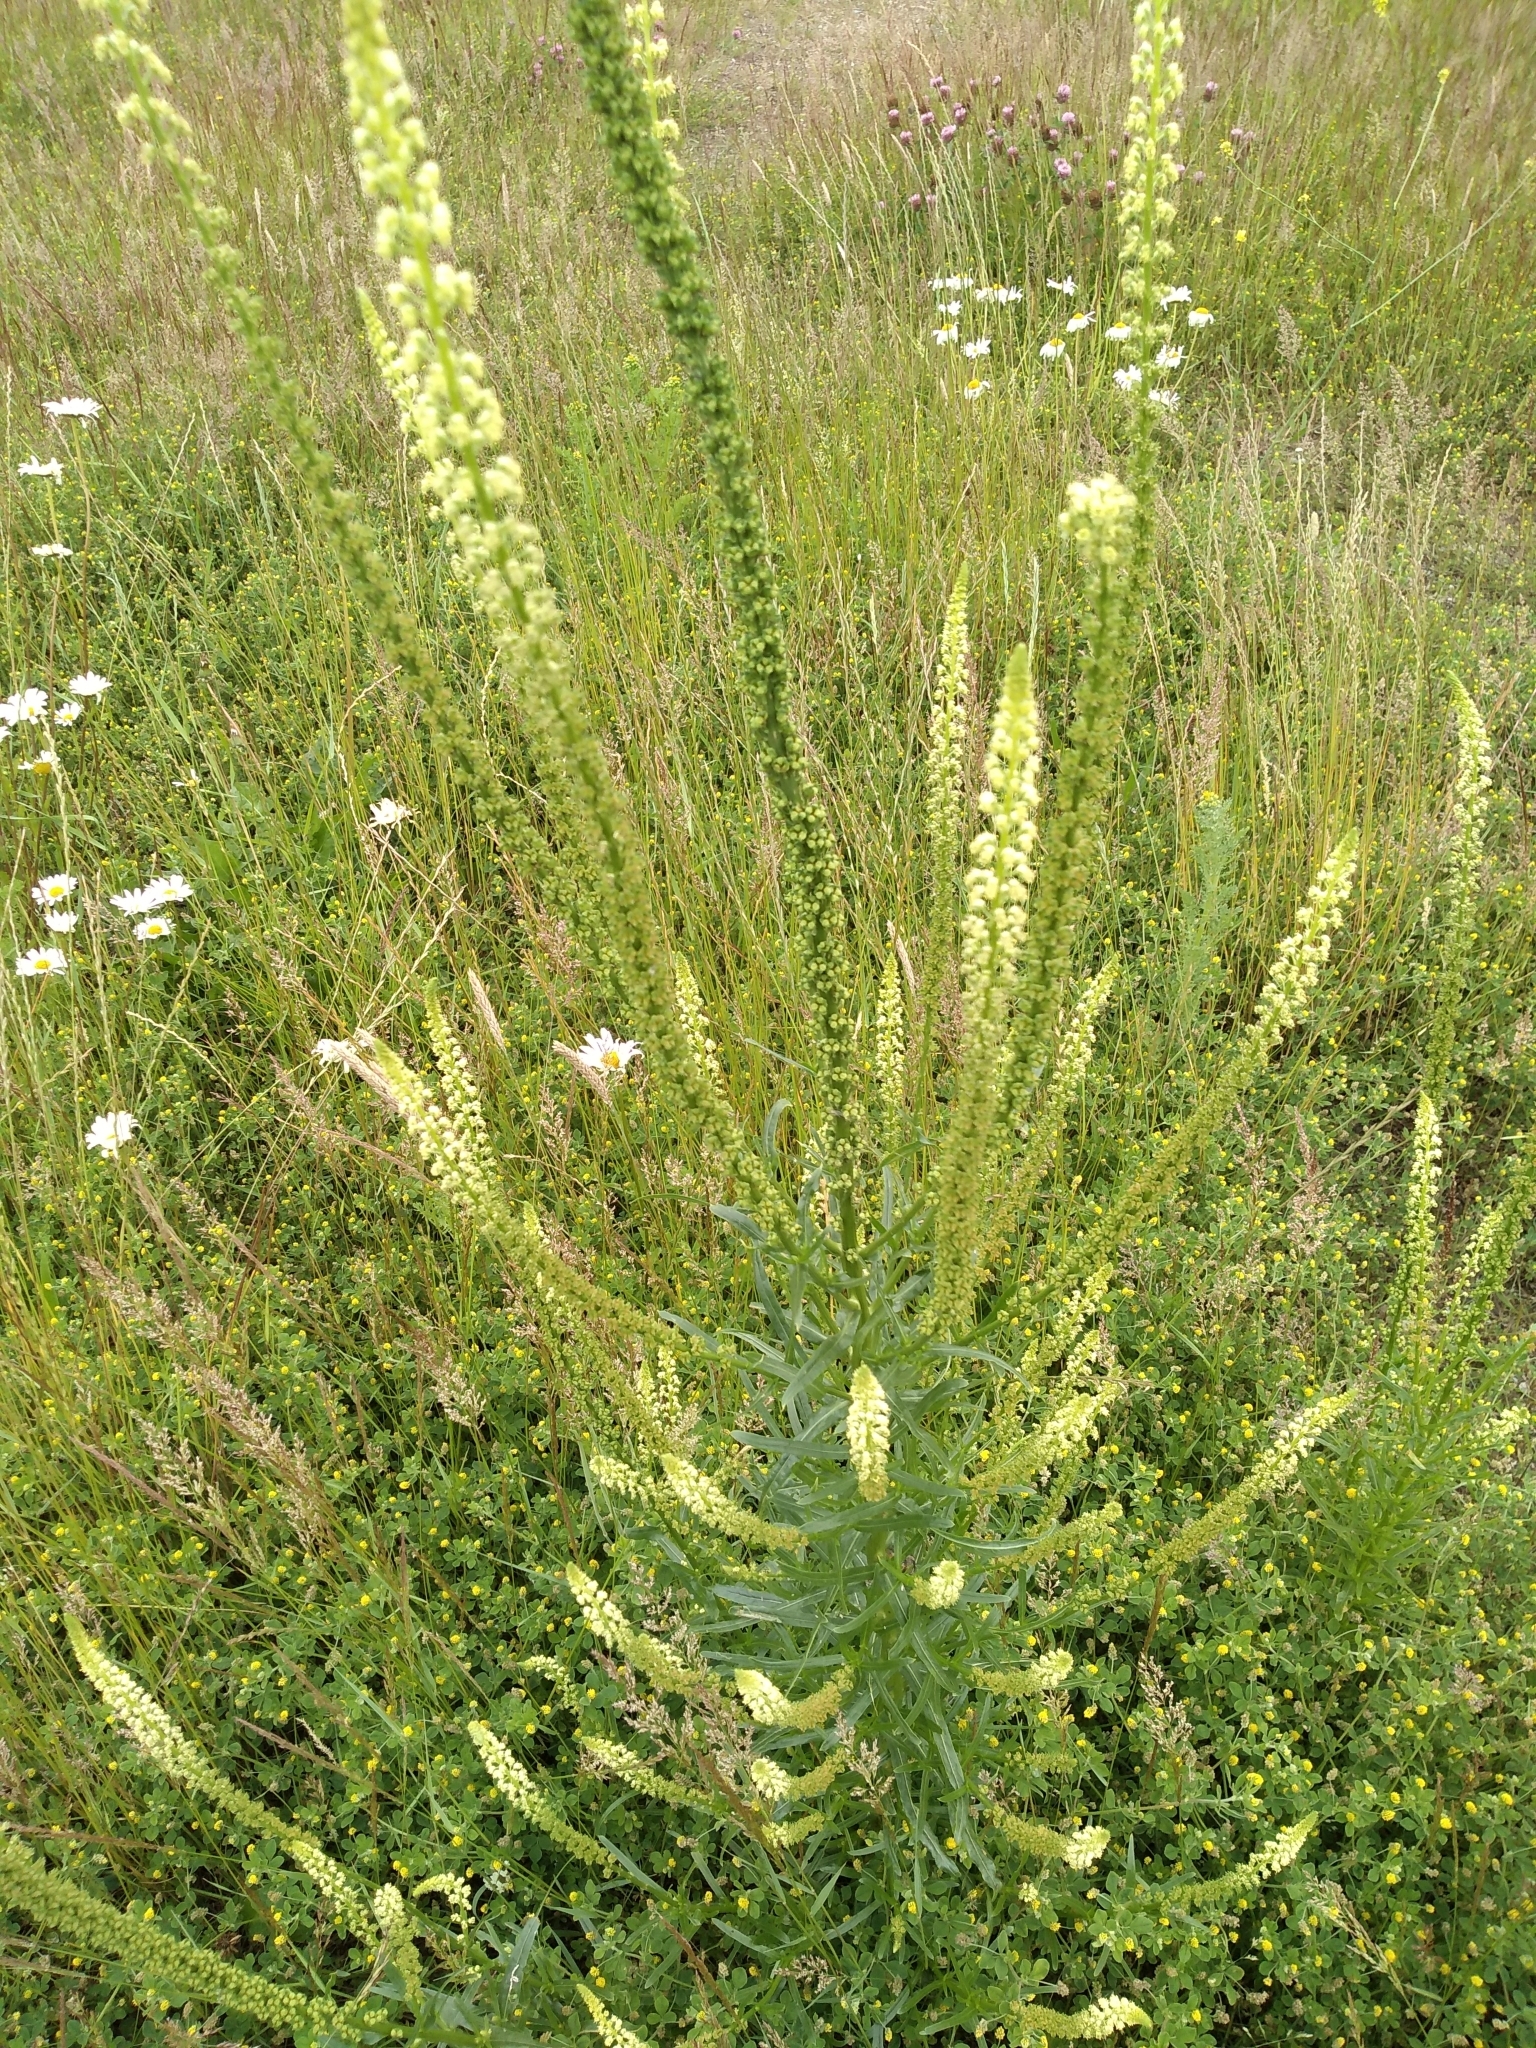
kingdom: Plantae
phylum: Tracheophyta
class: Magnoliopsida
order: Brassicales
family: Resedaceae
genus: Reseda
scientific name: Reseda luteola
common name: Weld
